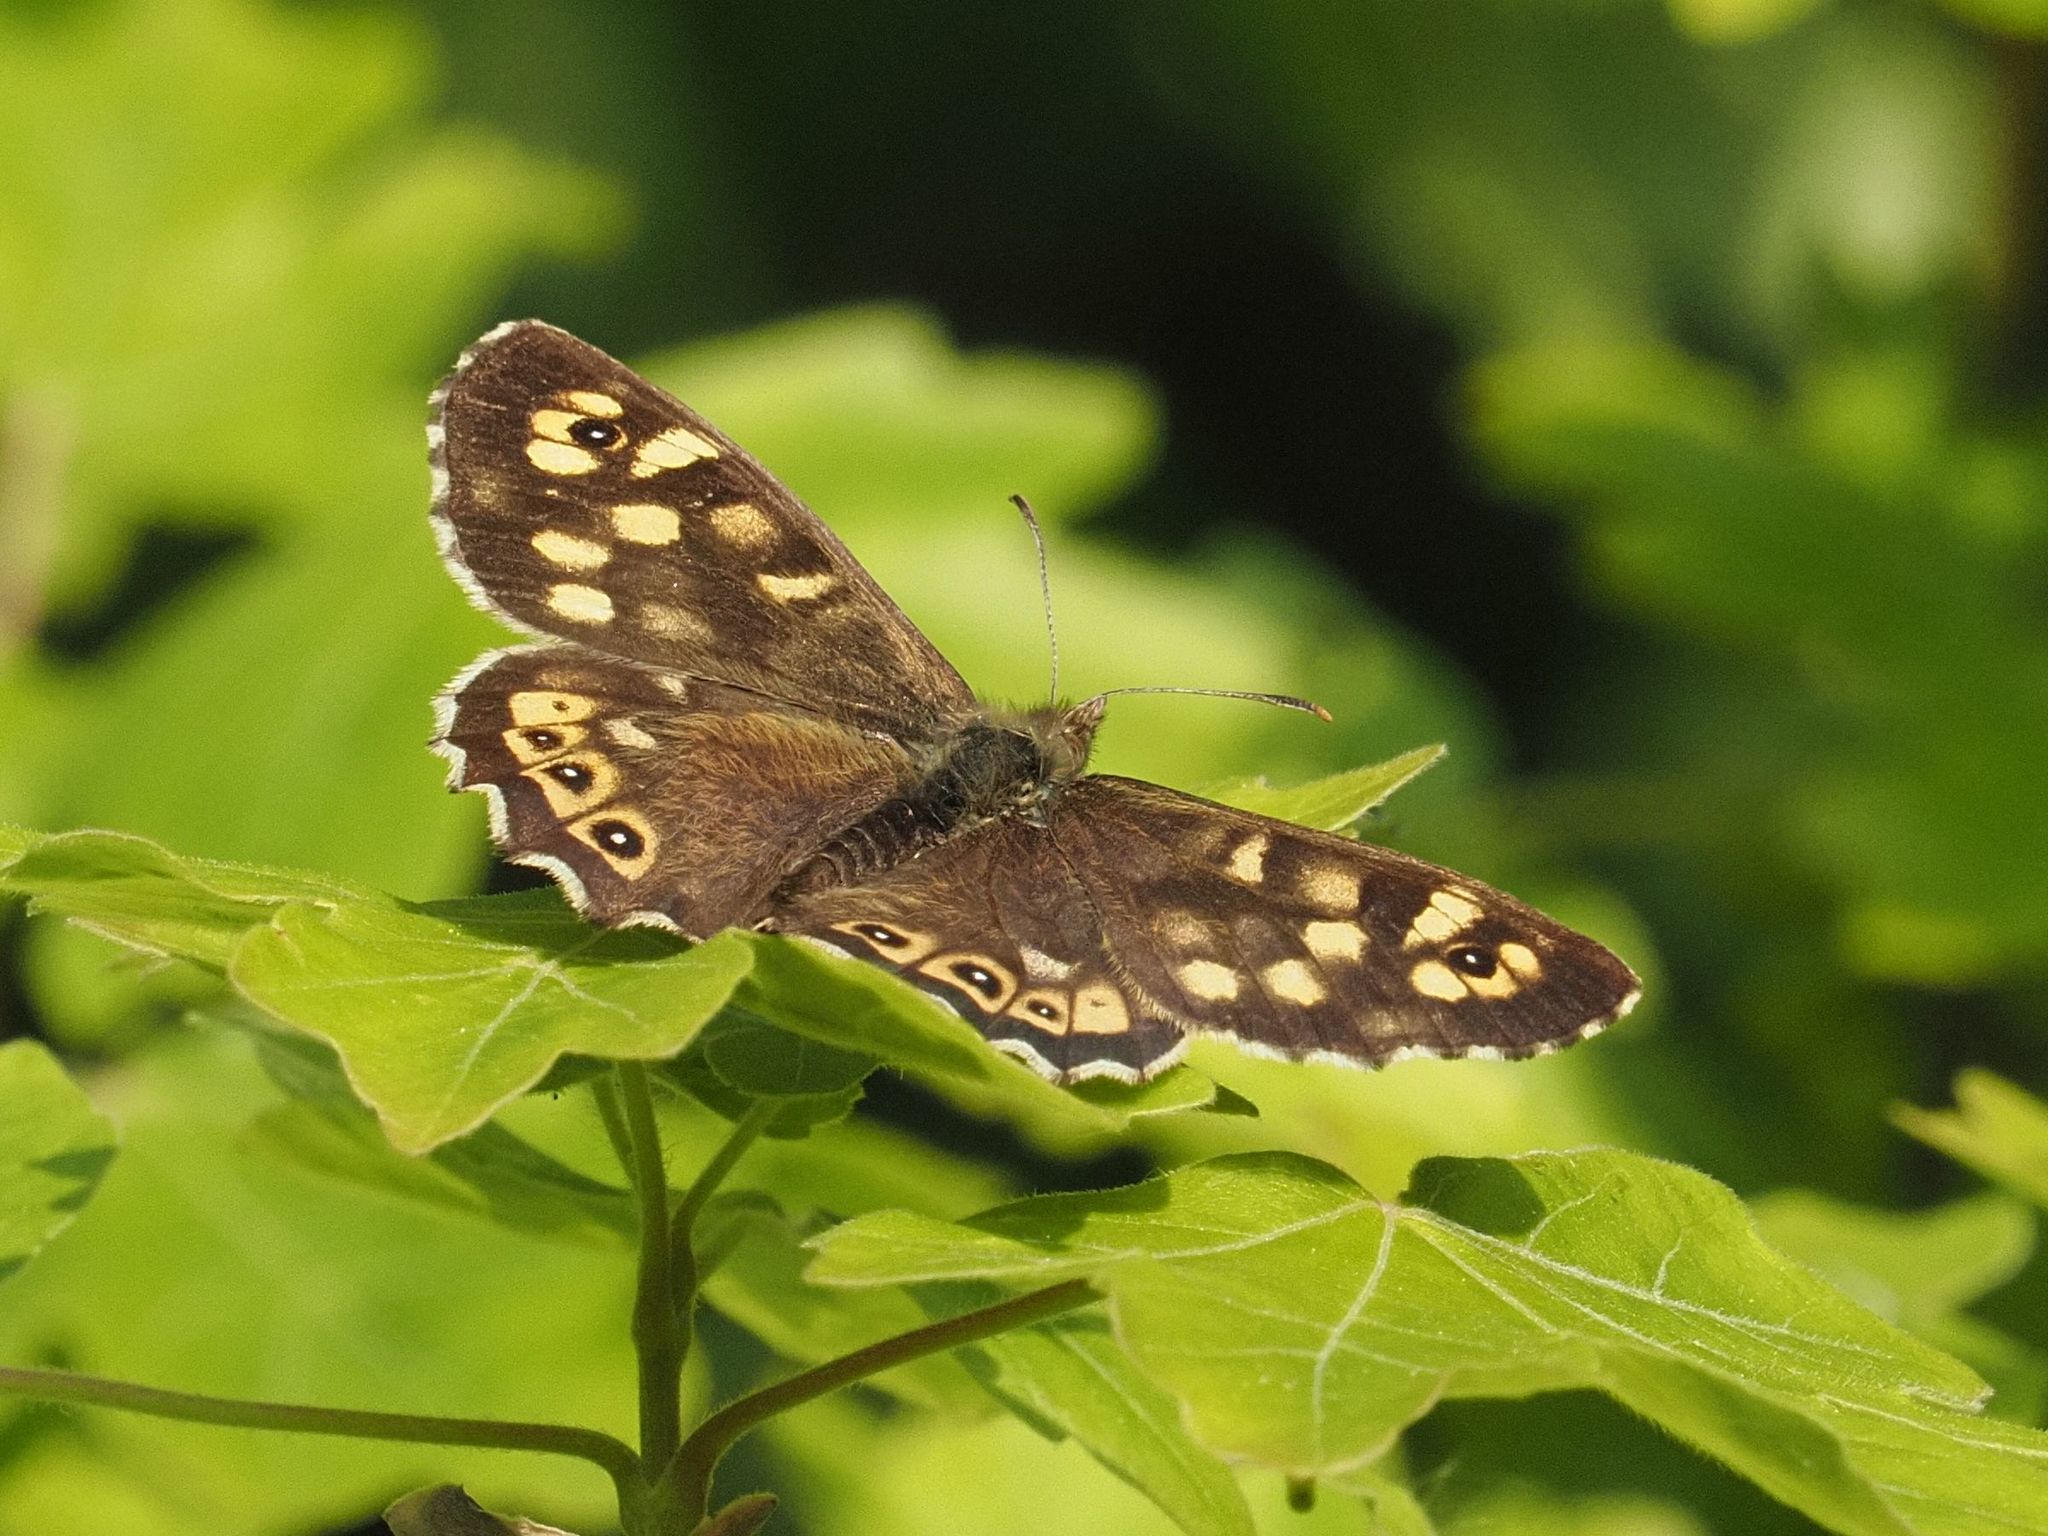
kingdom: Animalia
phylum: Arthropoda
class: Insecta
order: Lepidoptera
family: Nymphalidae
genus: Pararge
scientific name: Pararge aegeria
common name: Speckled wood
